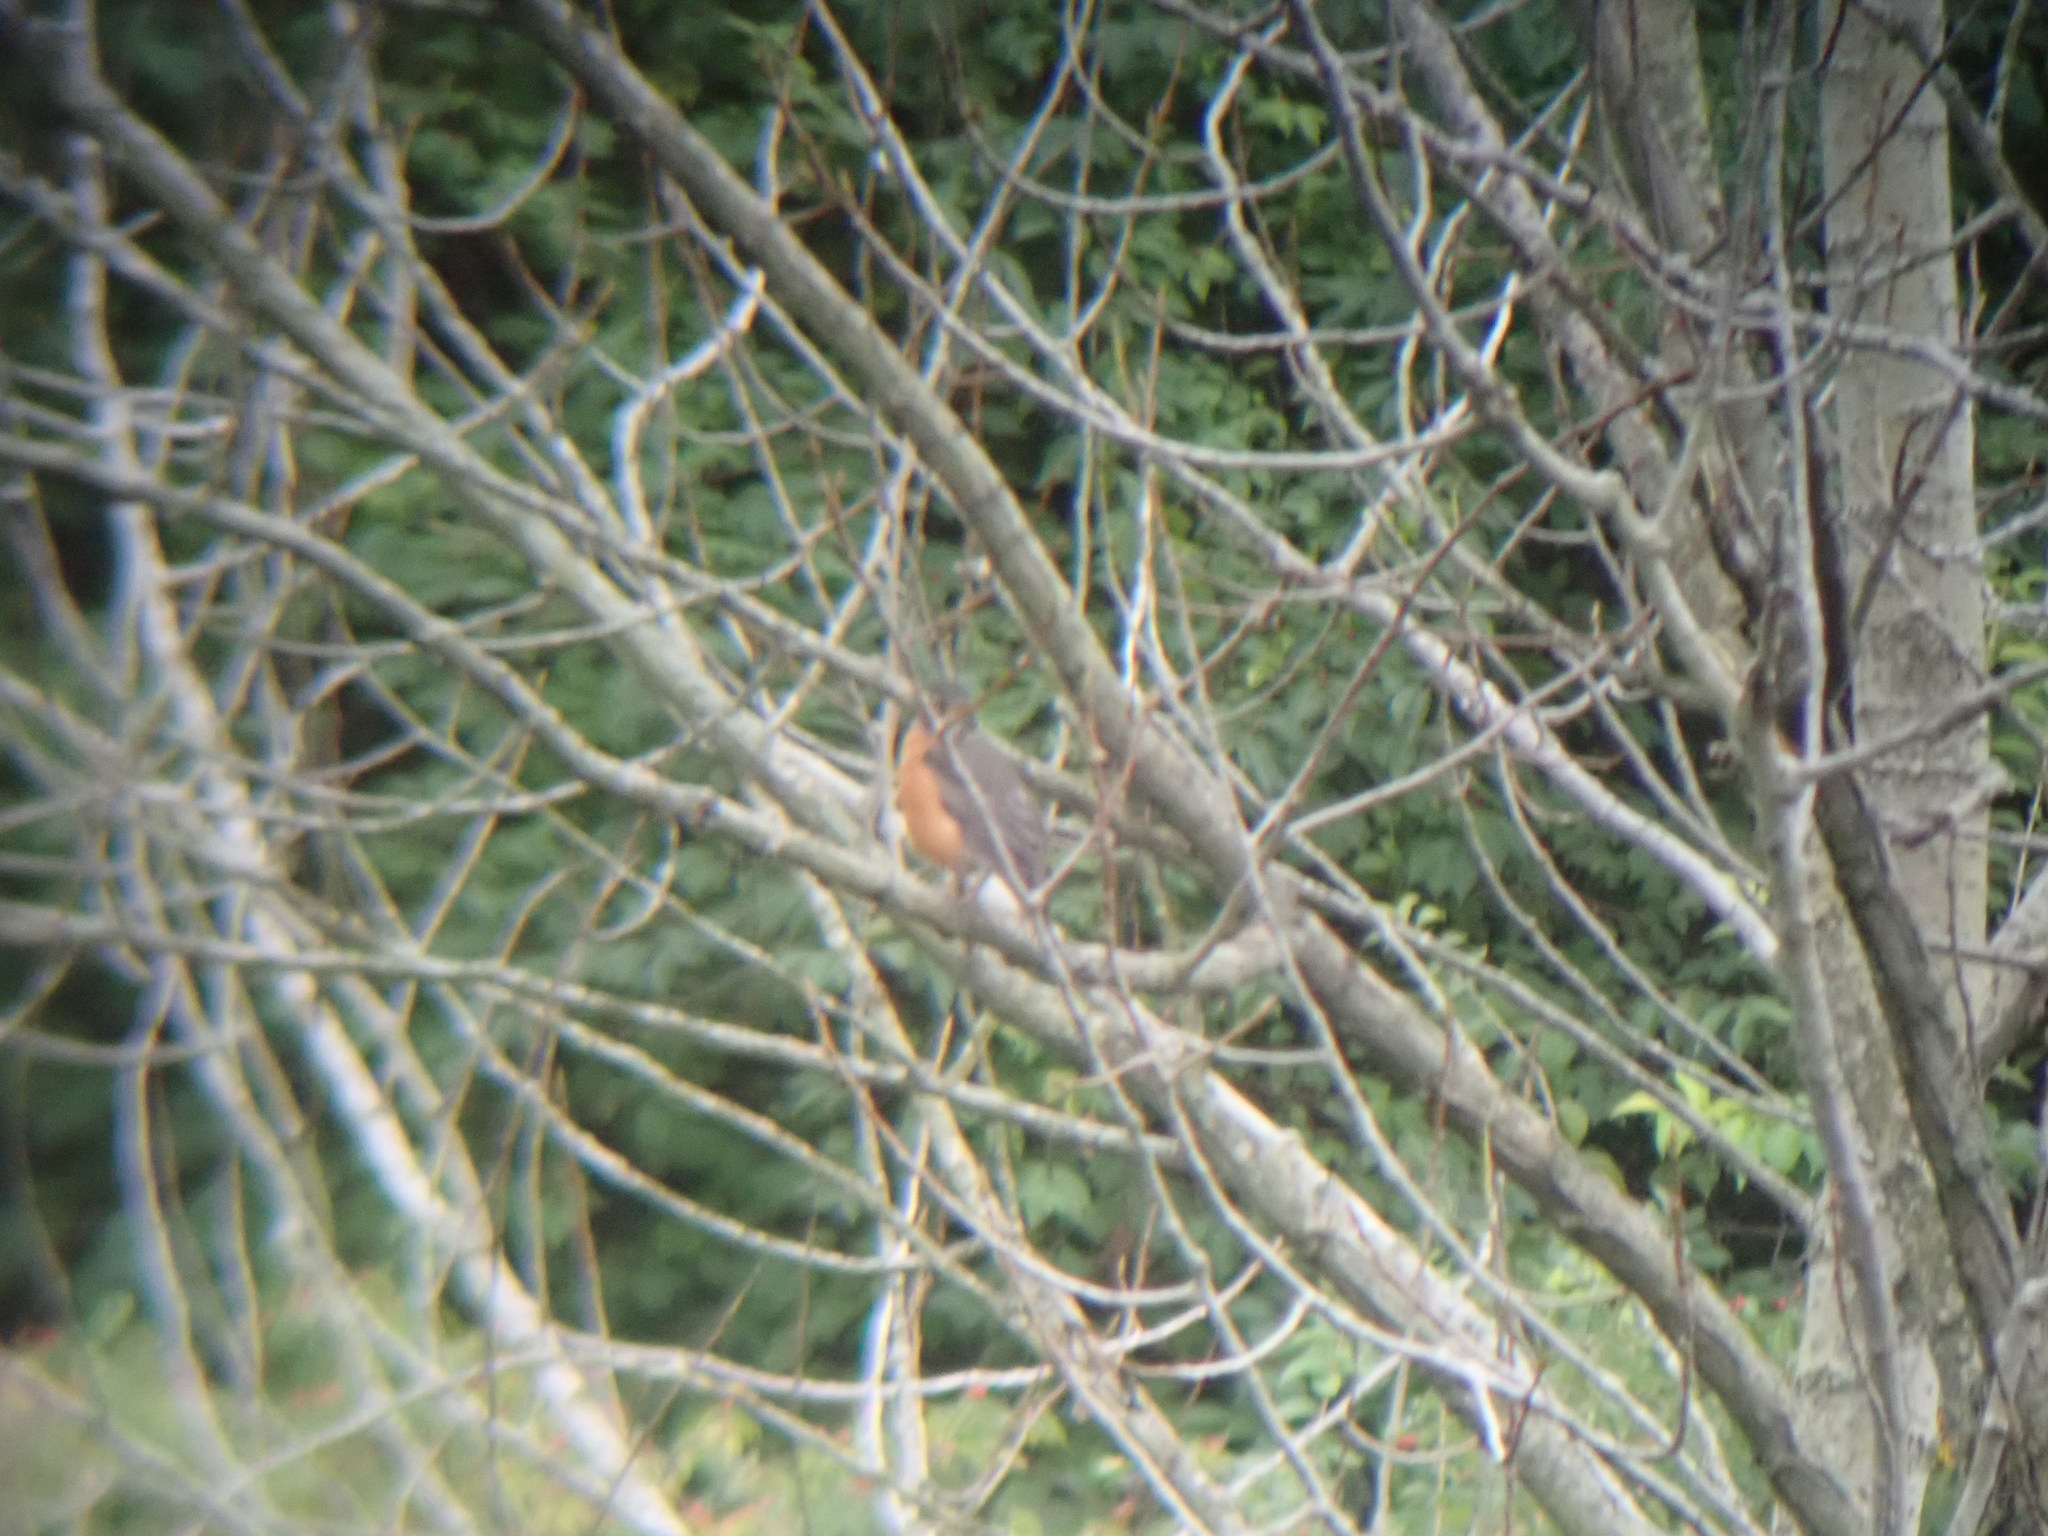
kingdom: Animalia
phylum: Chordata
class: Aves
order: Passeriformes
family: Turdidae
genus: Turdus
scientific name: Turdus migratorius
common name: American robin
